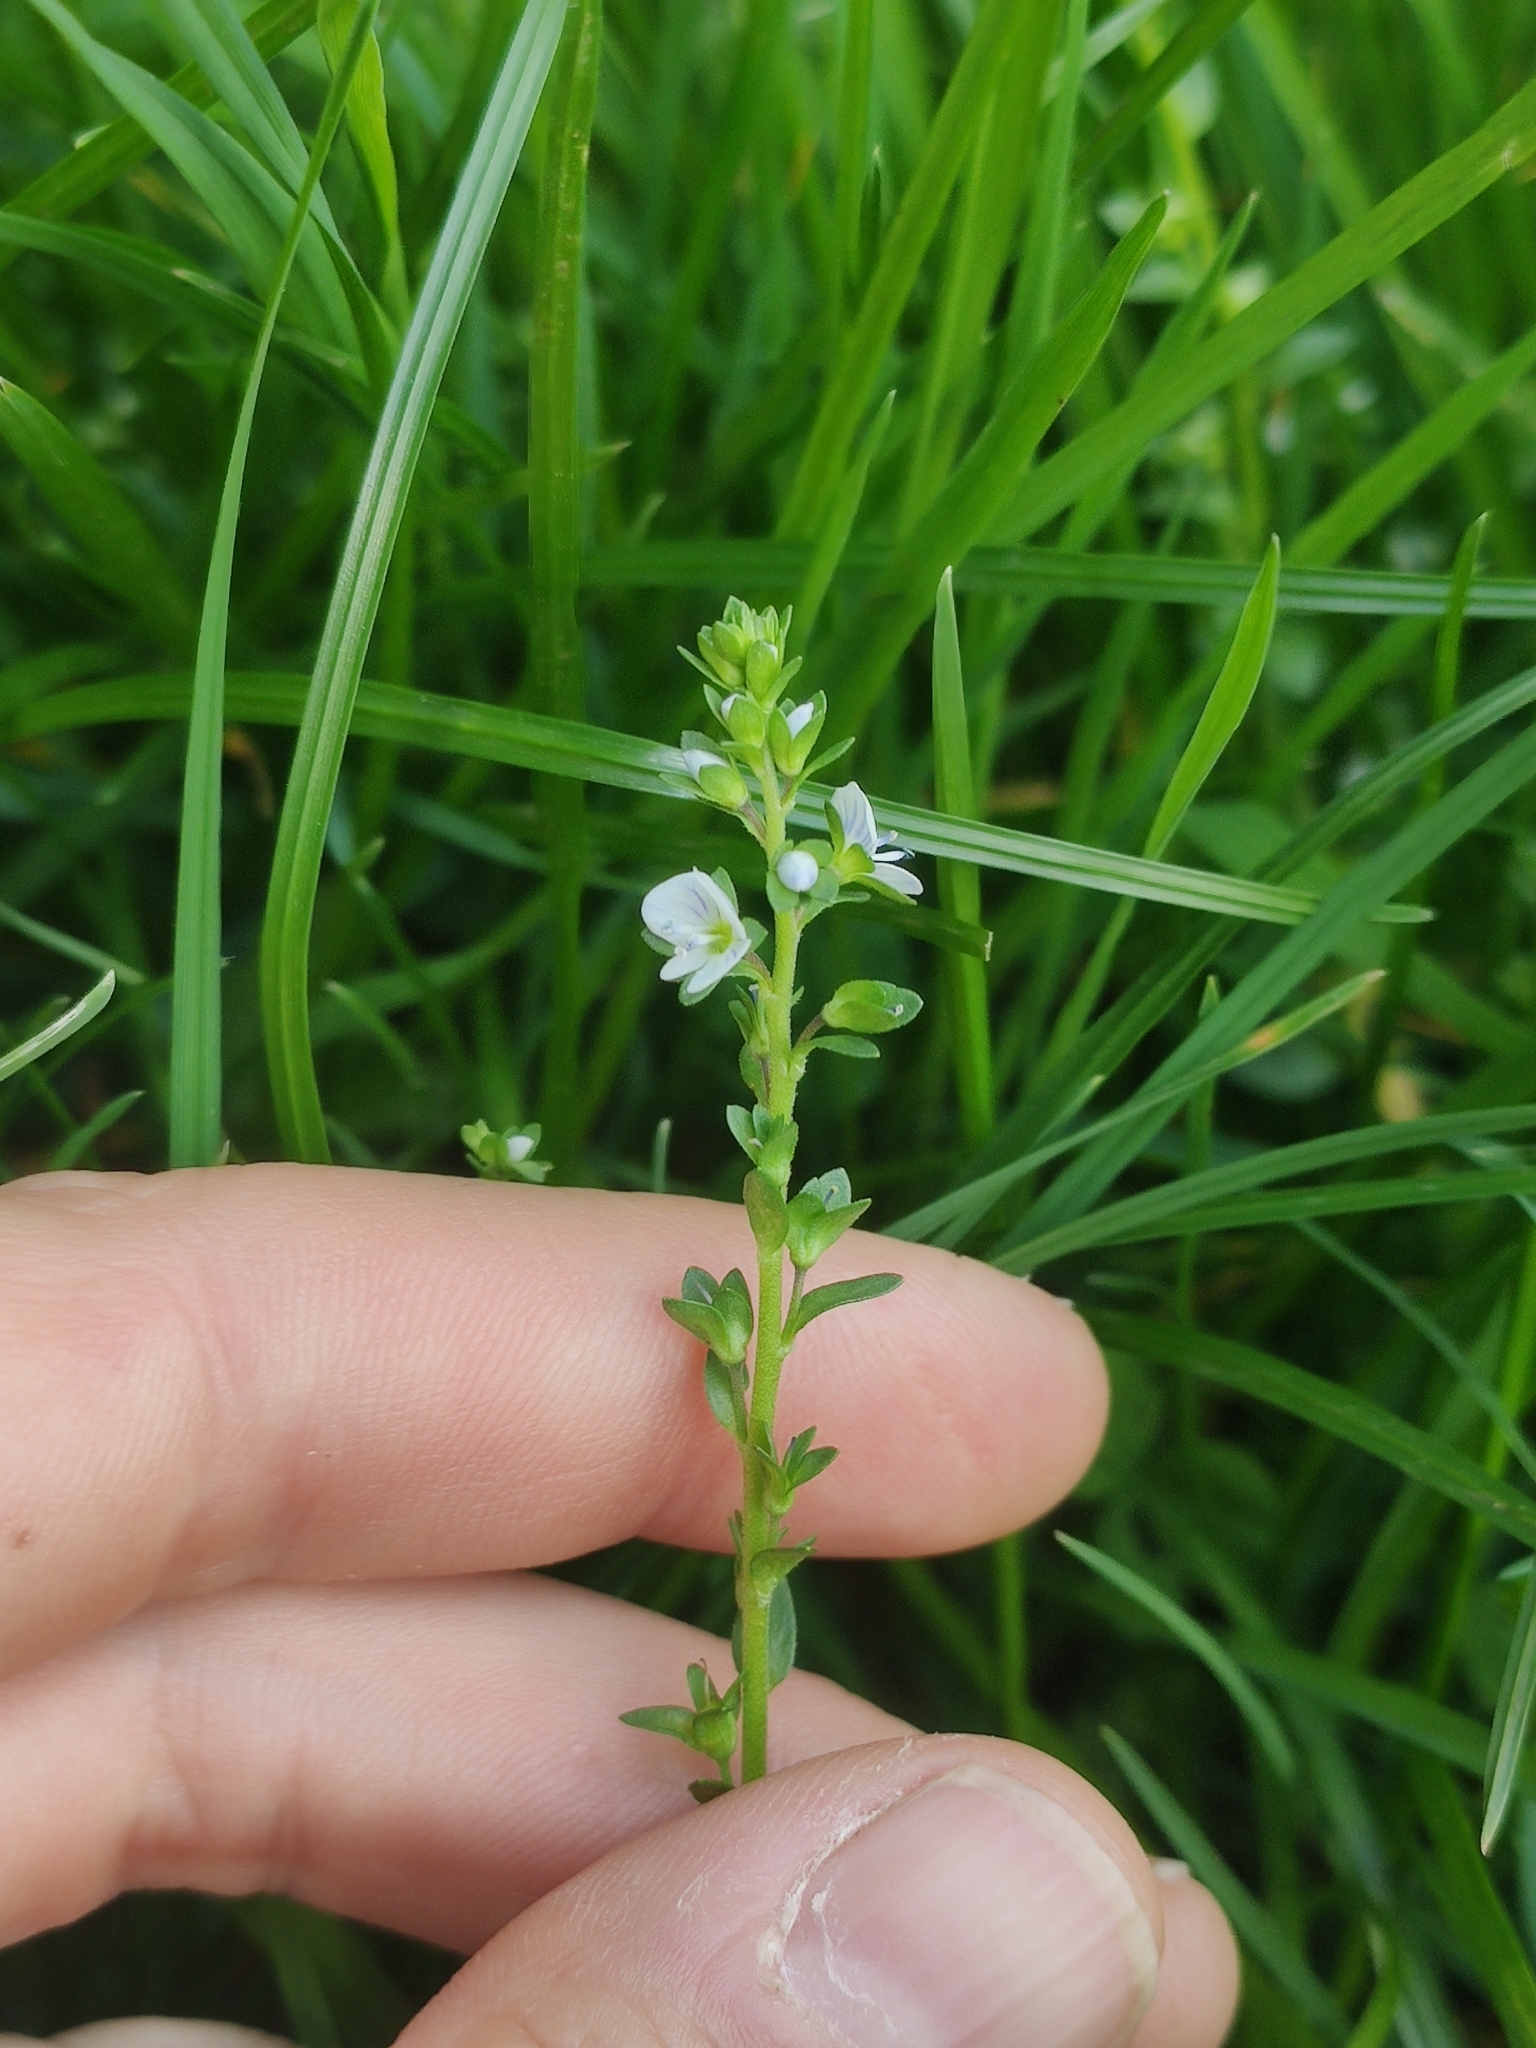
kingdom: Plantae
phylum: Tracheophyta
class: Magnoliopsida
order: Lamiales
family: Plantaginaceae
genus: Veronica
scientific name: Veronica serpyllifolia
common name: Thyme-leaved speedwell
